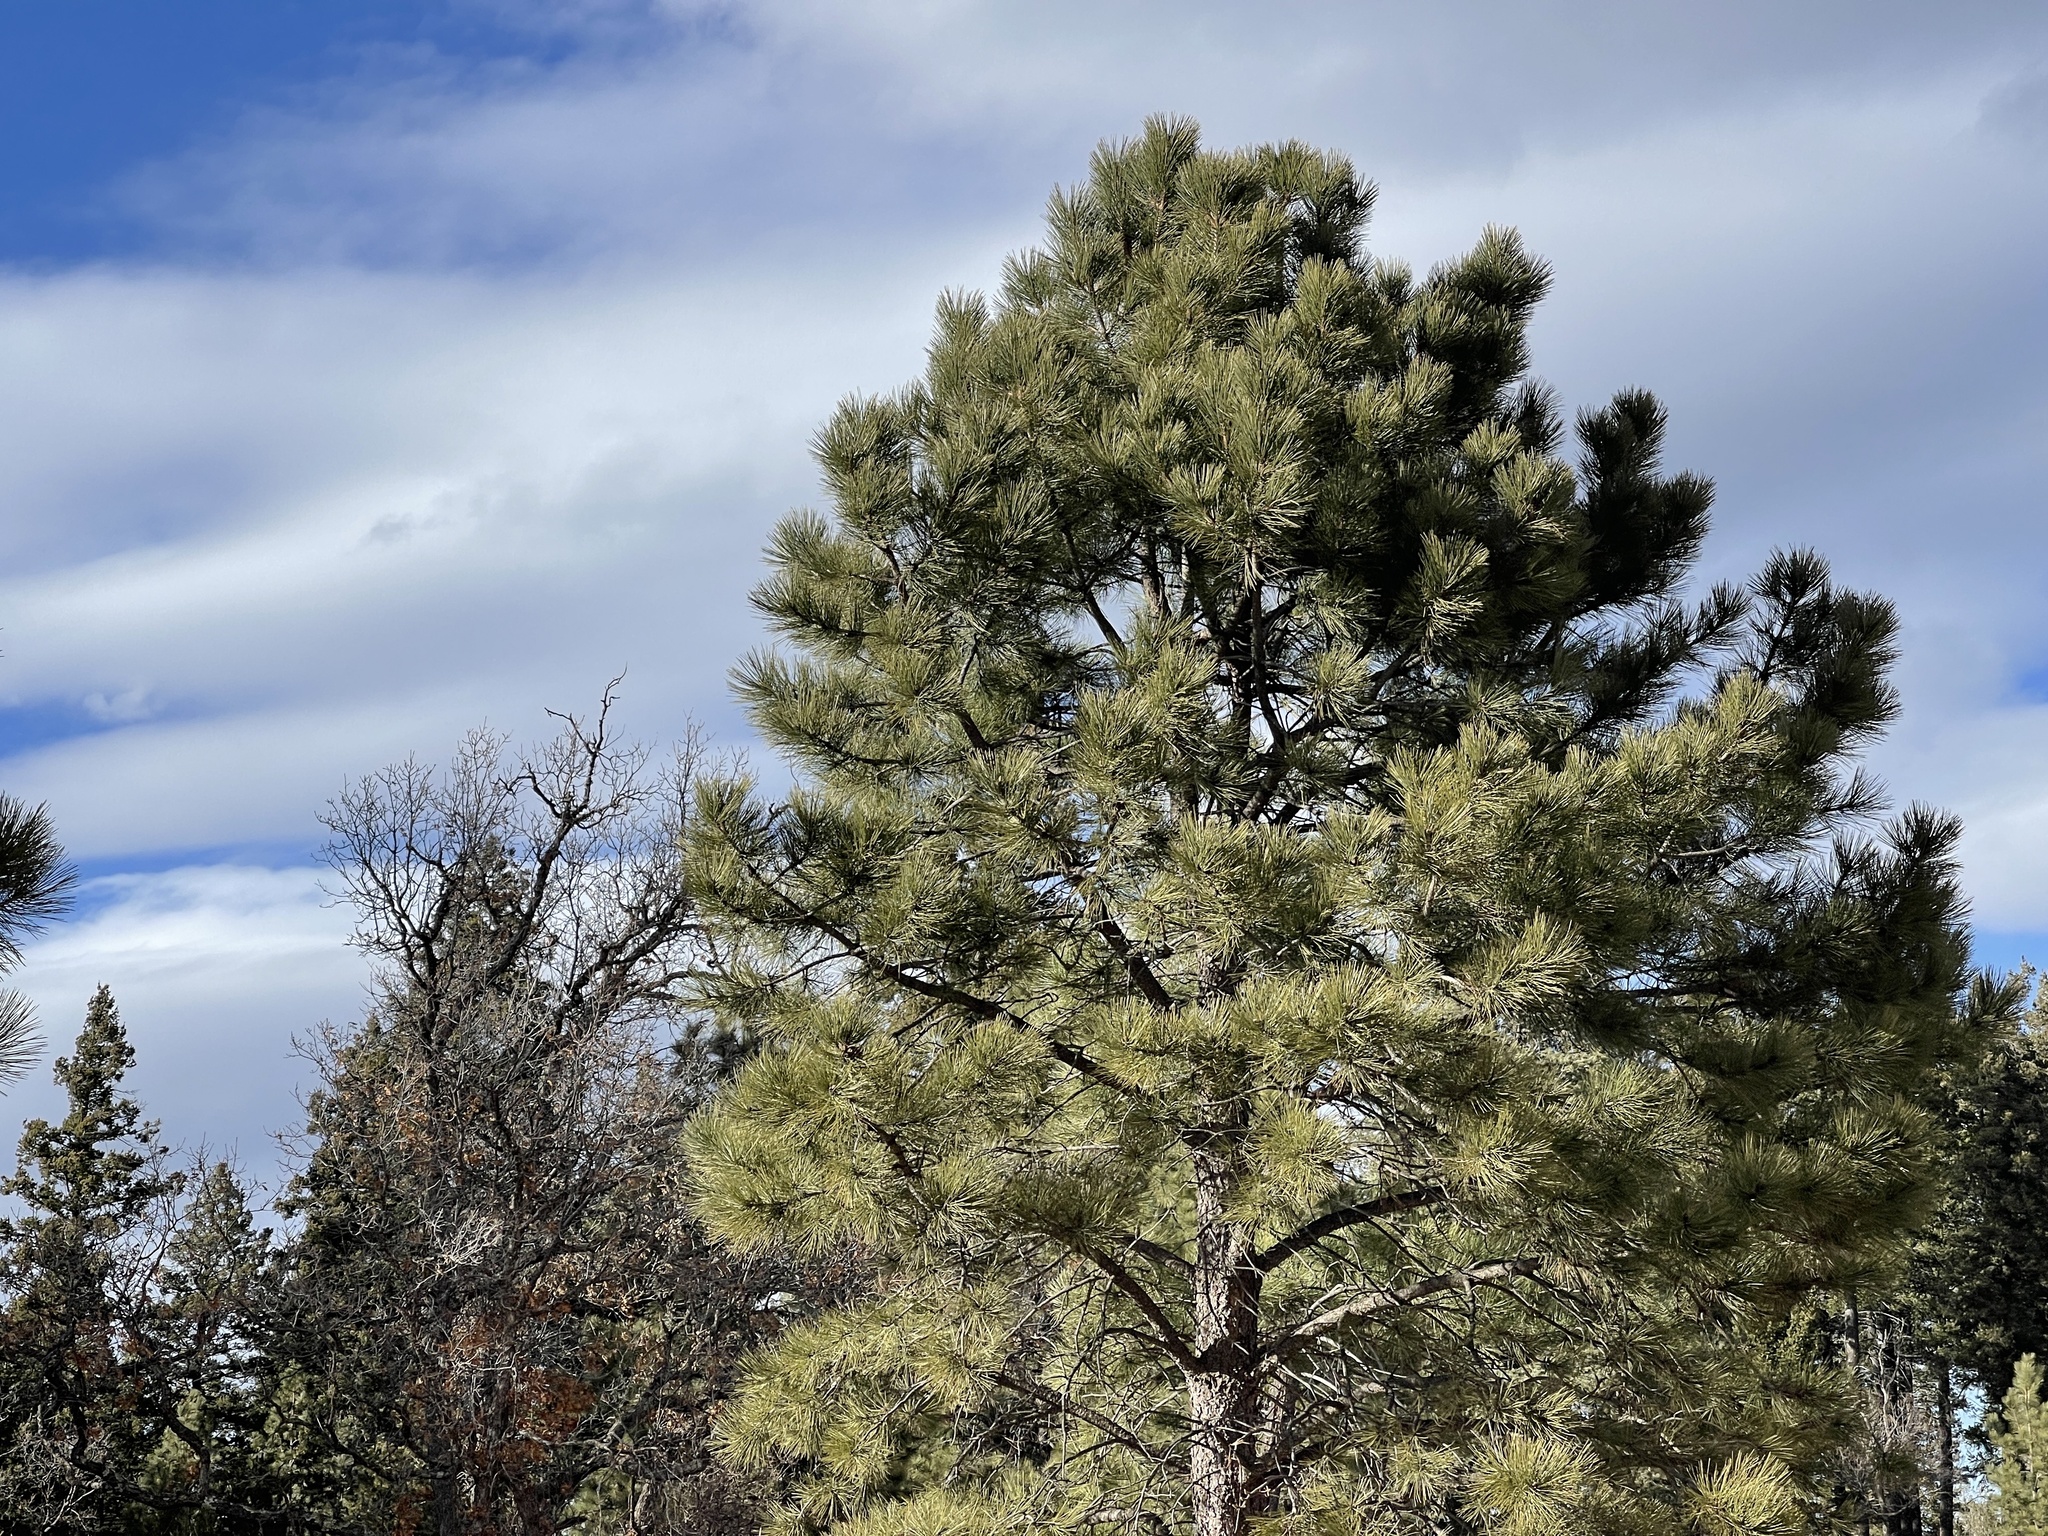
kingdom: Plantae
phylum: Tracheophyta
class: Pinopsida
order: Pinales
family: Pinaceae
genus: Pinus
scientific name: Pinus ponderosa
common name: Western yellow-pine
